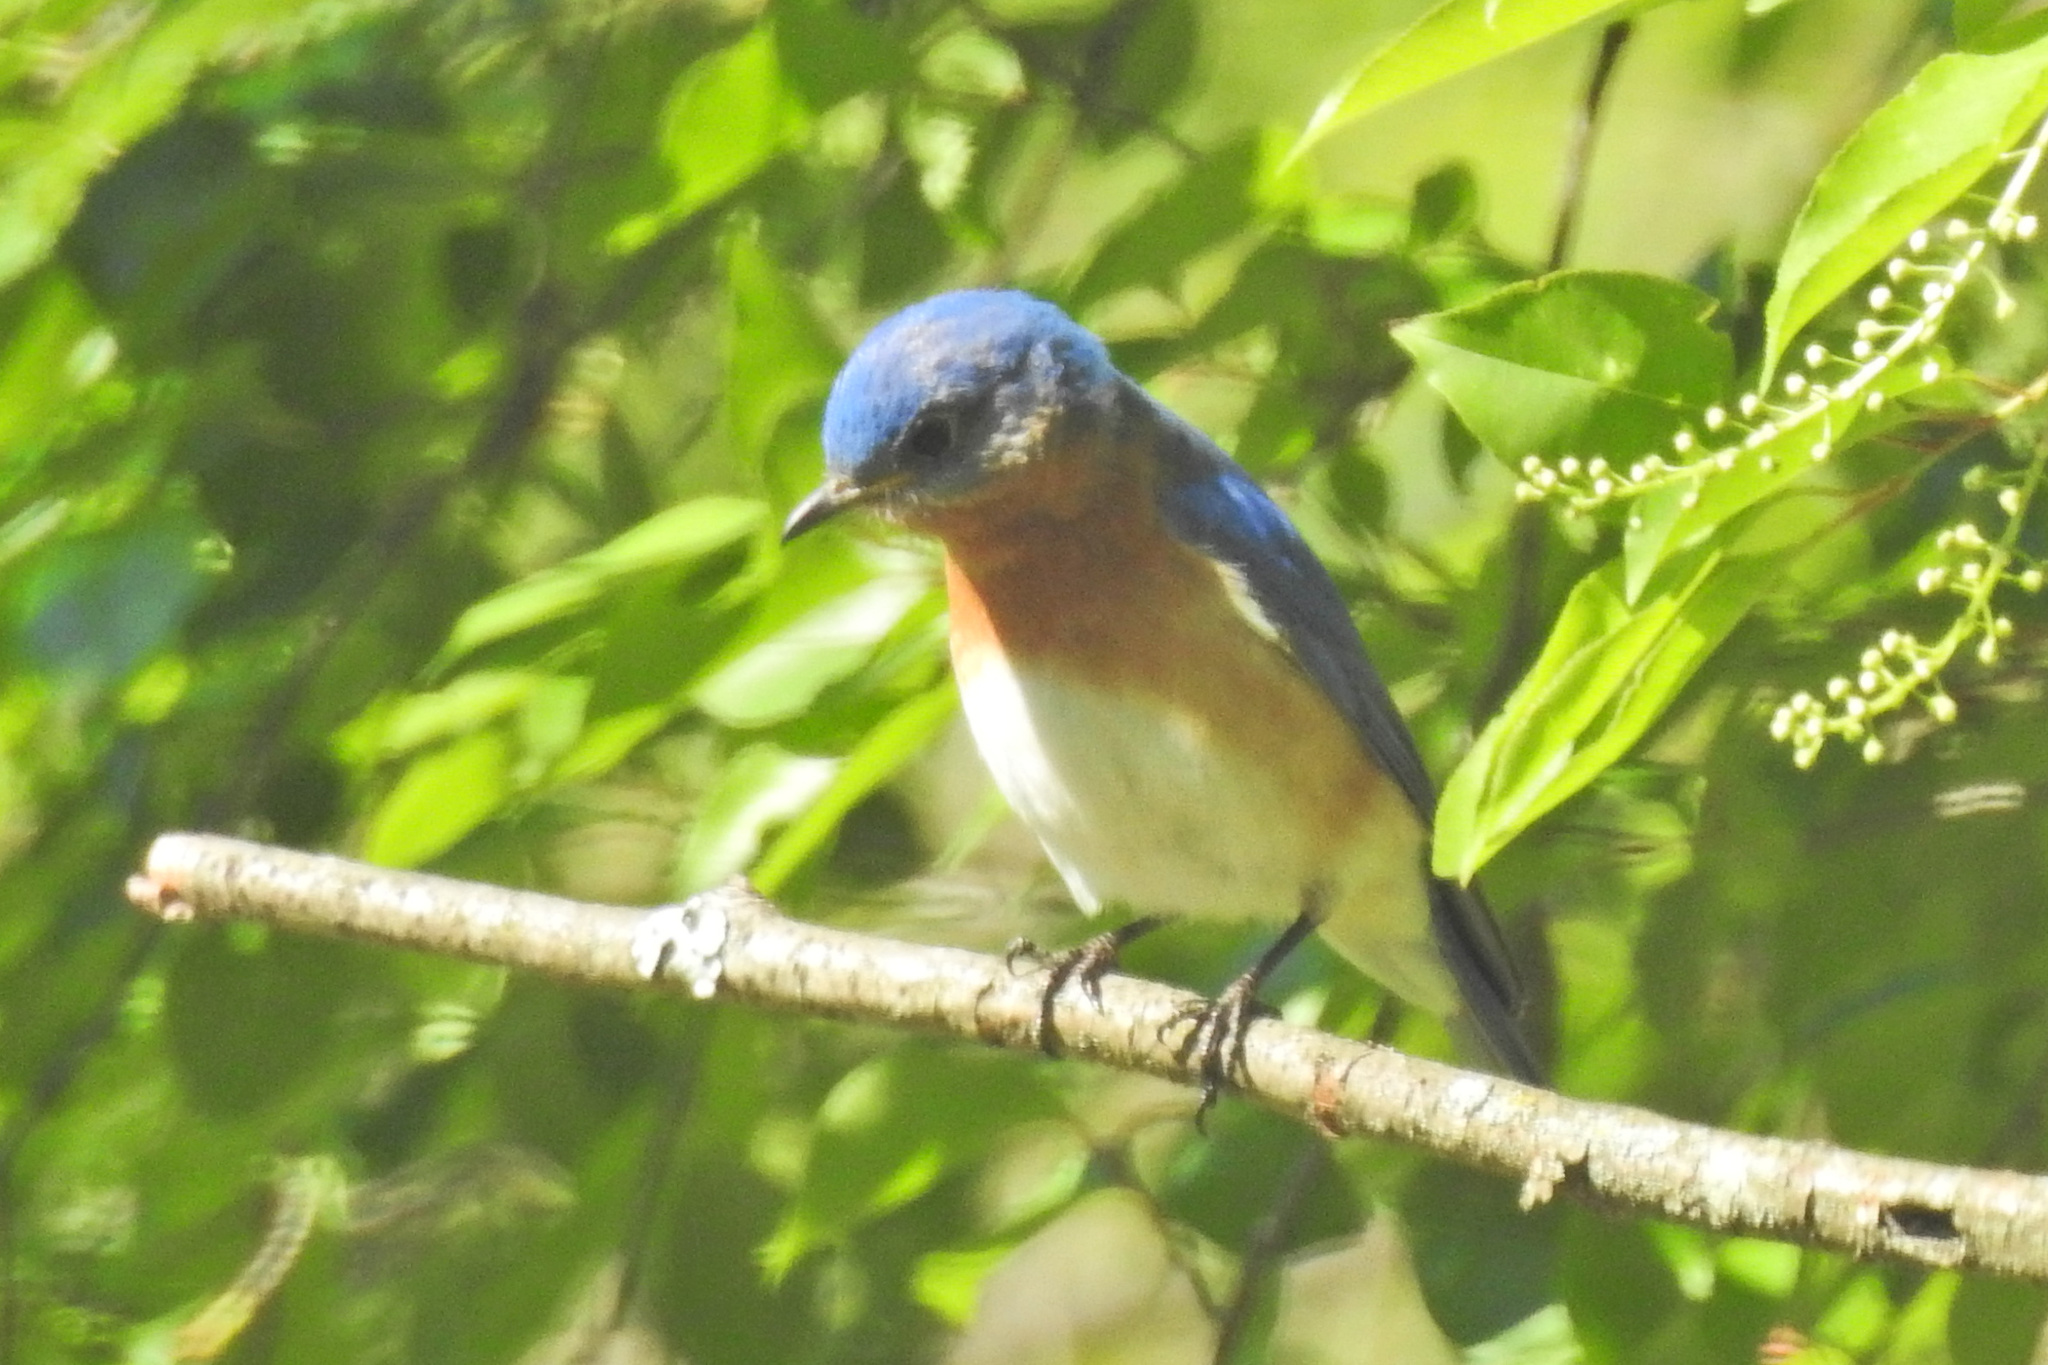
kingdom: Animalia
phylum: Chordata
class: Aves
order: Passeriformes
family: Turdidae
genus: Sialia
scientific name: Sialia sialis
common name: Eastern bluebird
